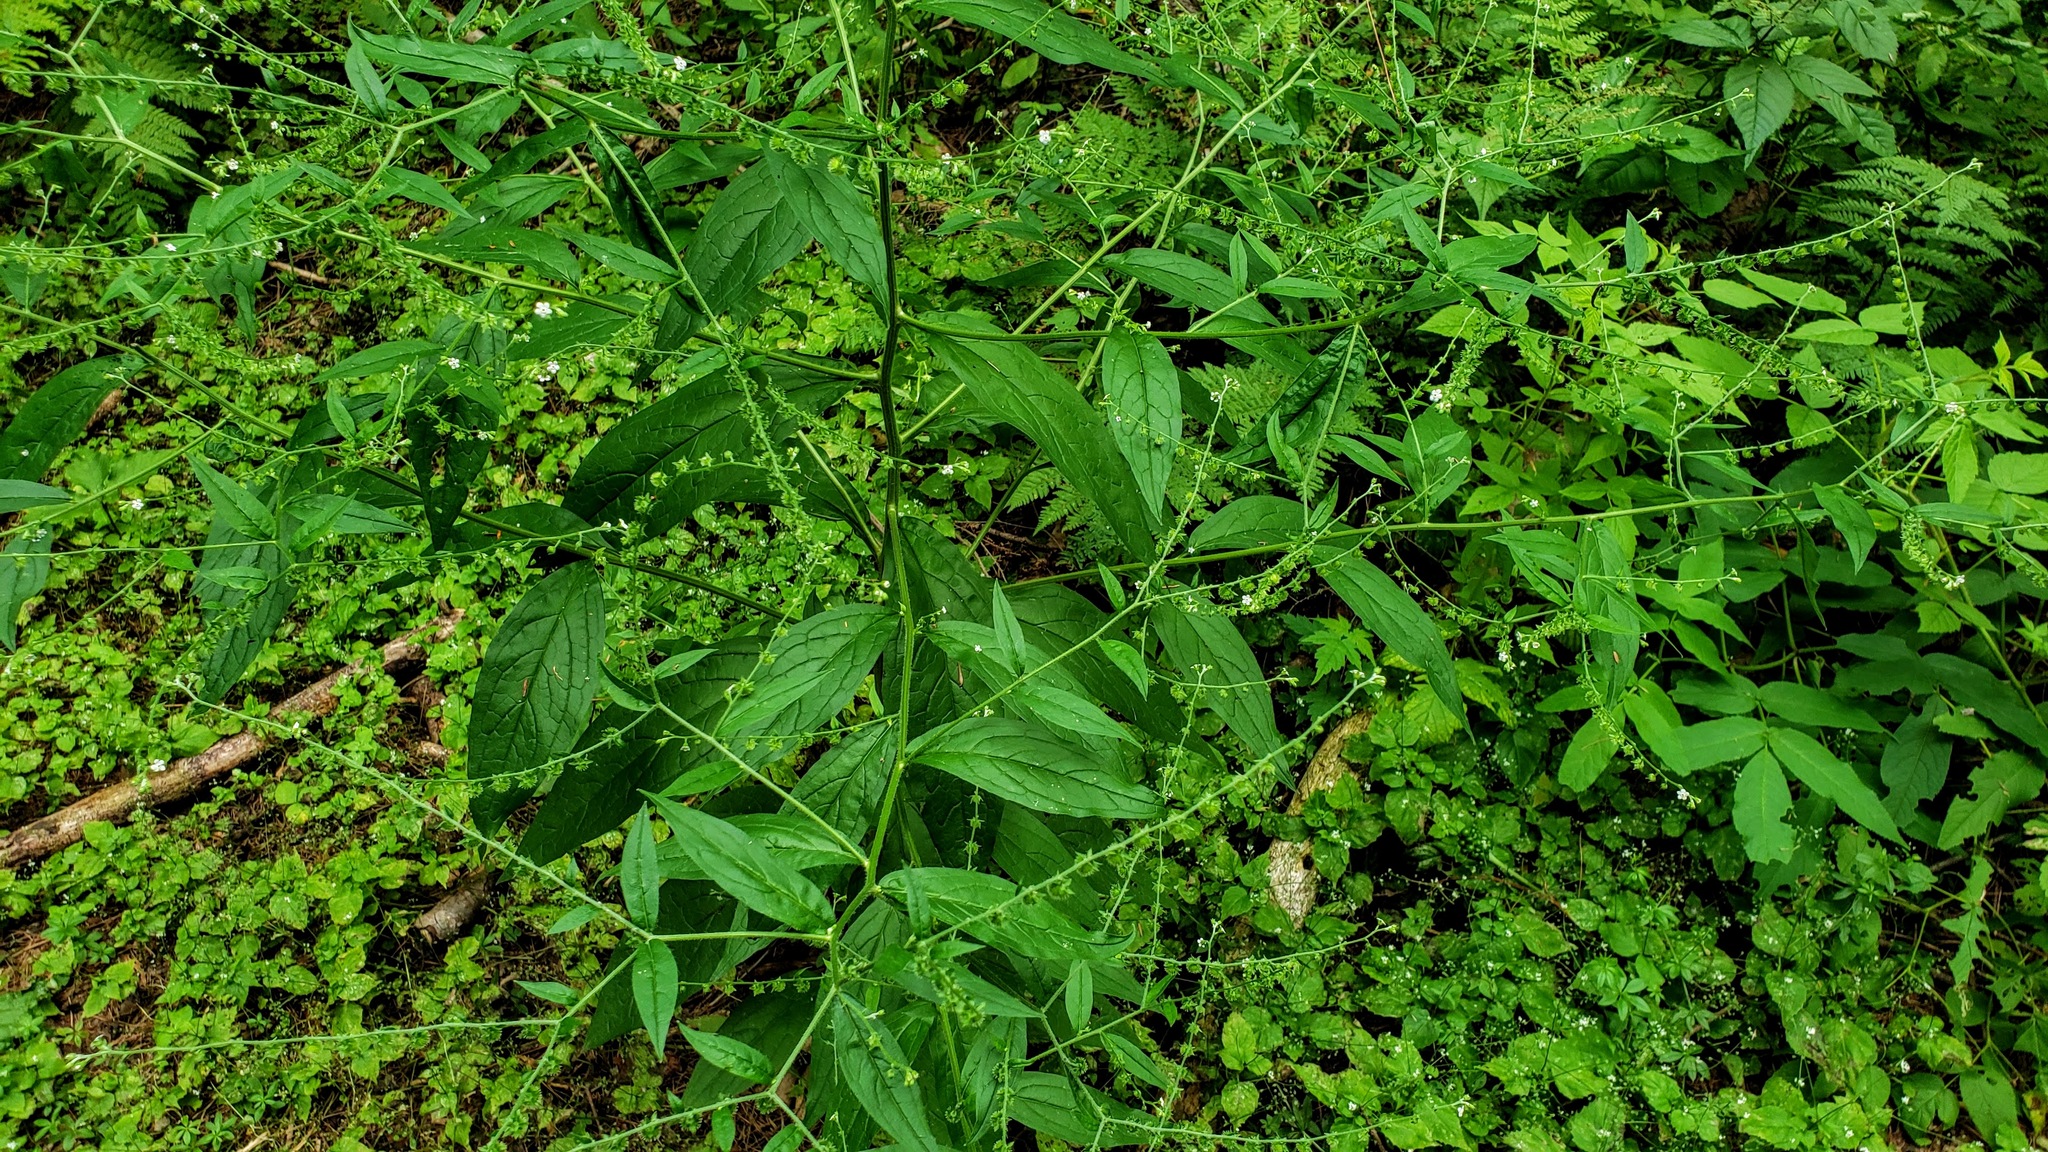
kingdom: Plantae
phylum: Tracheophyta
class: Magnoliopsida
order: Boraginales
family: Boraginaceae
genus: Hackelia
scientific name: Hackelia virginiana
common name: Beggar's-lice
